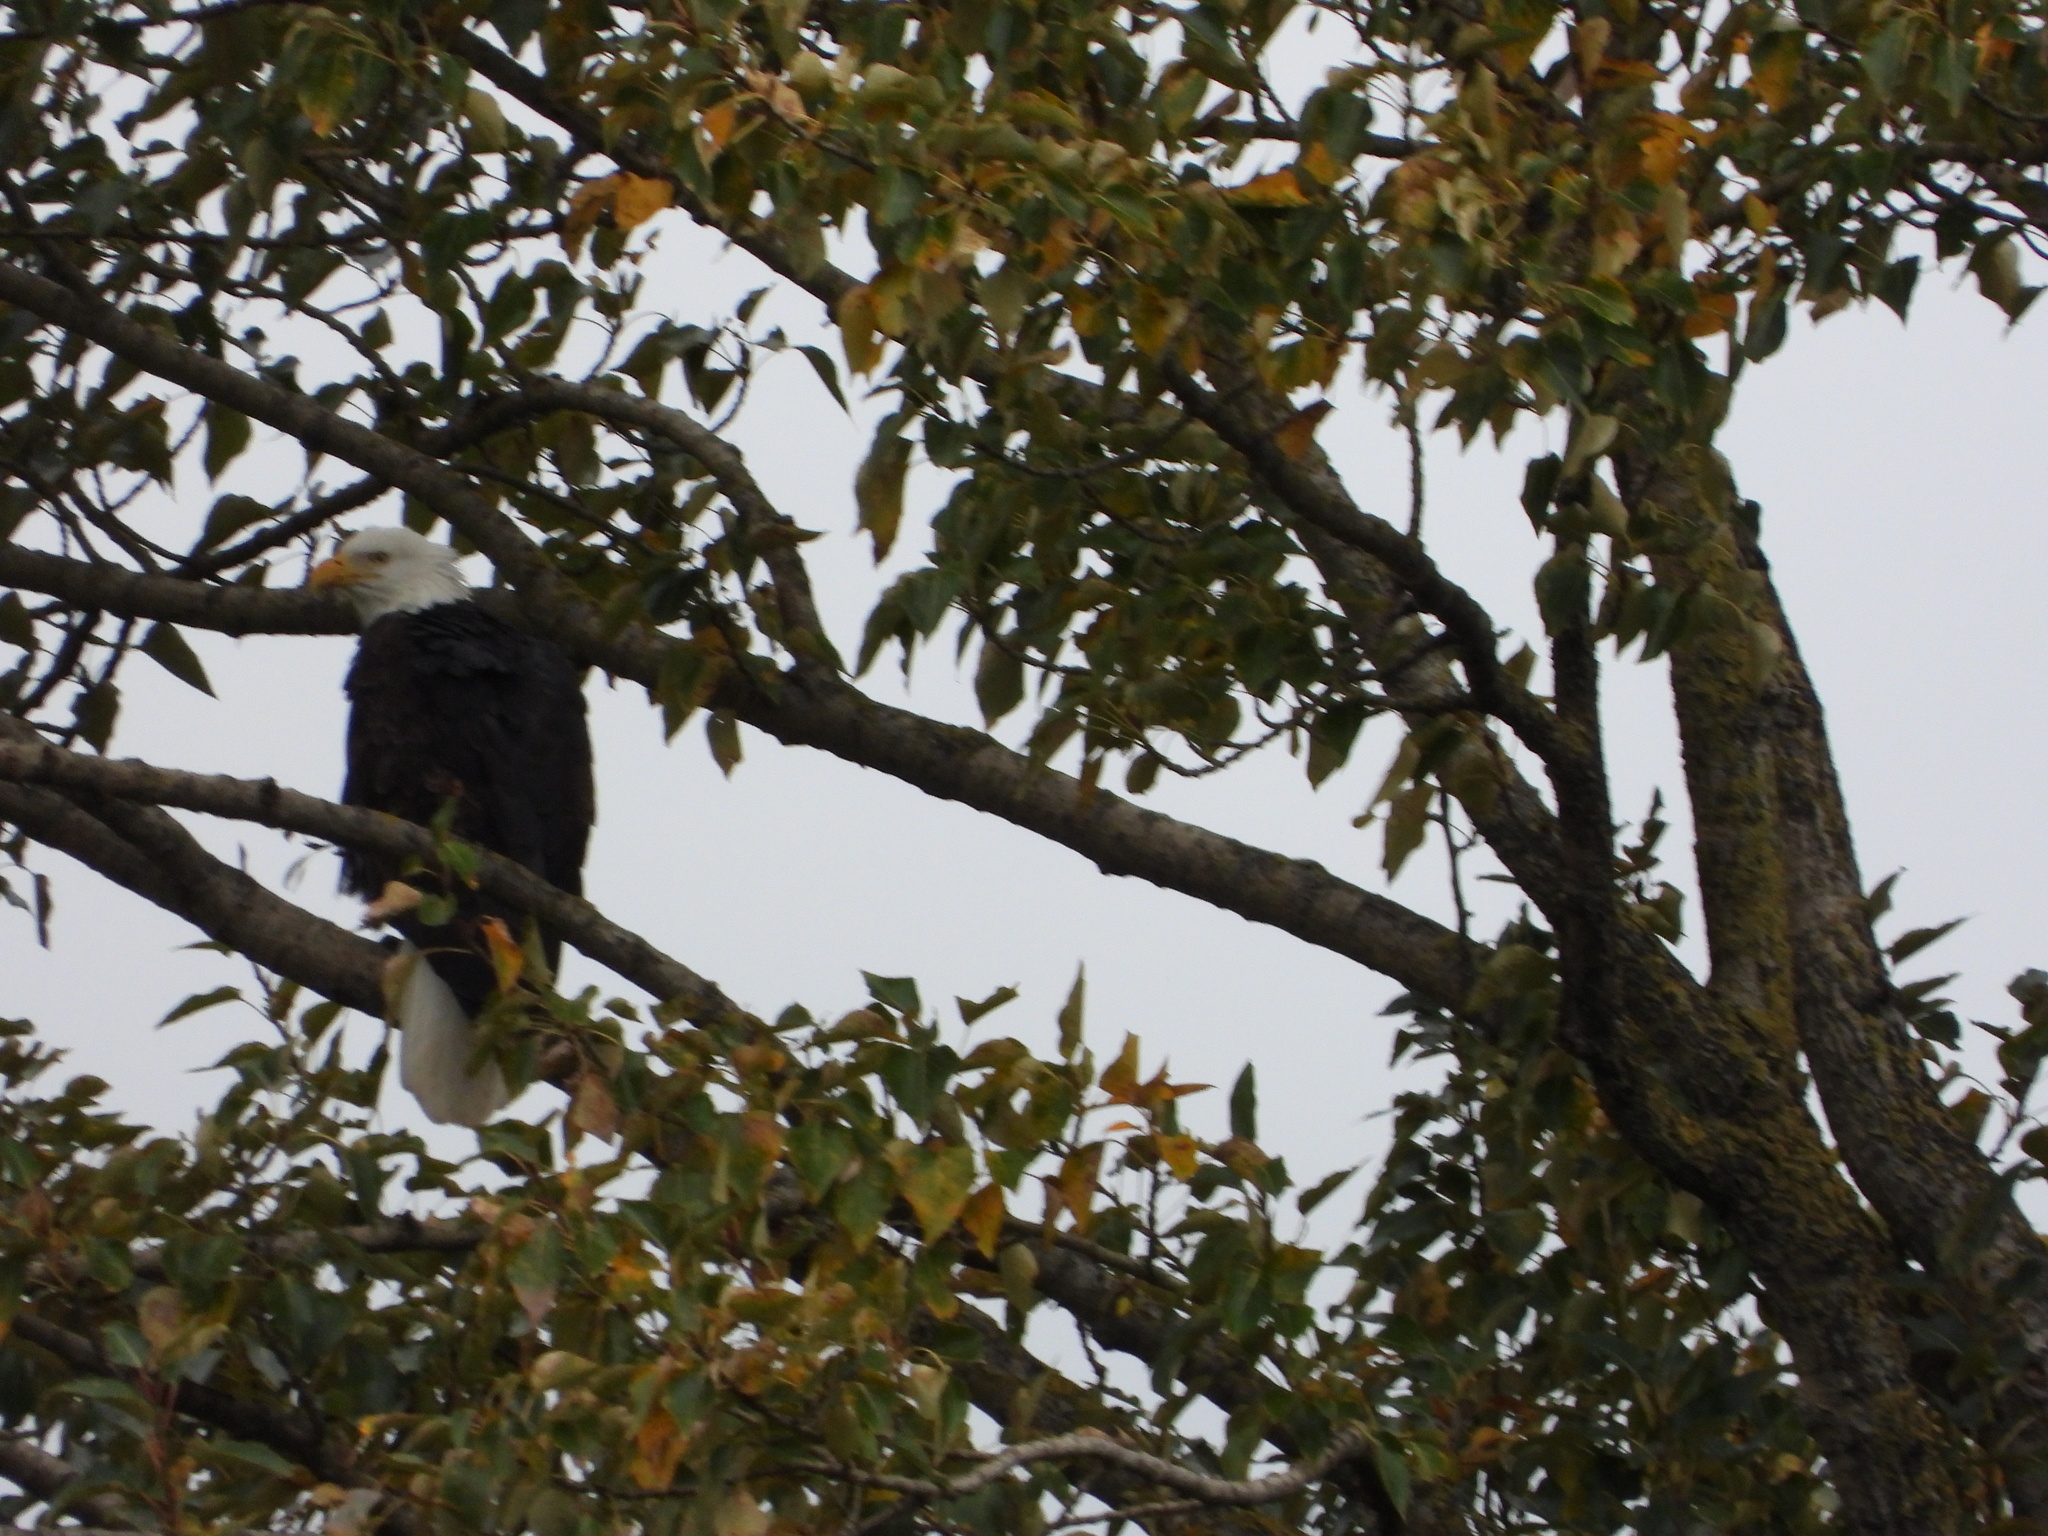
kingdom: Animalia
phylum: Chordata
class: Aves
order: Accipitriformes
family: Accipitridae
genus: Haliaeetus
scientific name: Haliaeetus leucocephalus
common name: Bald eagle
